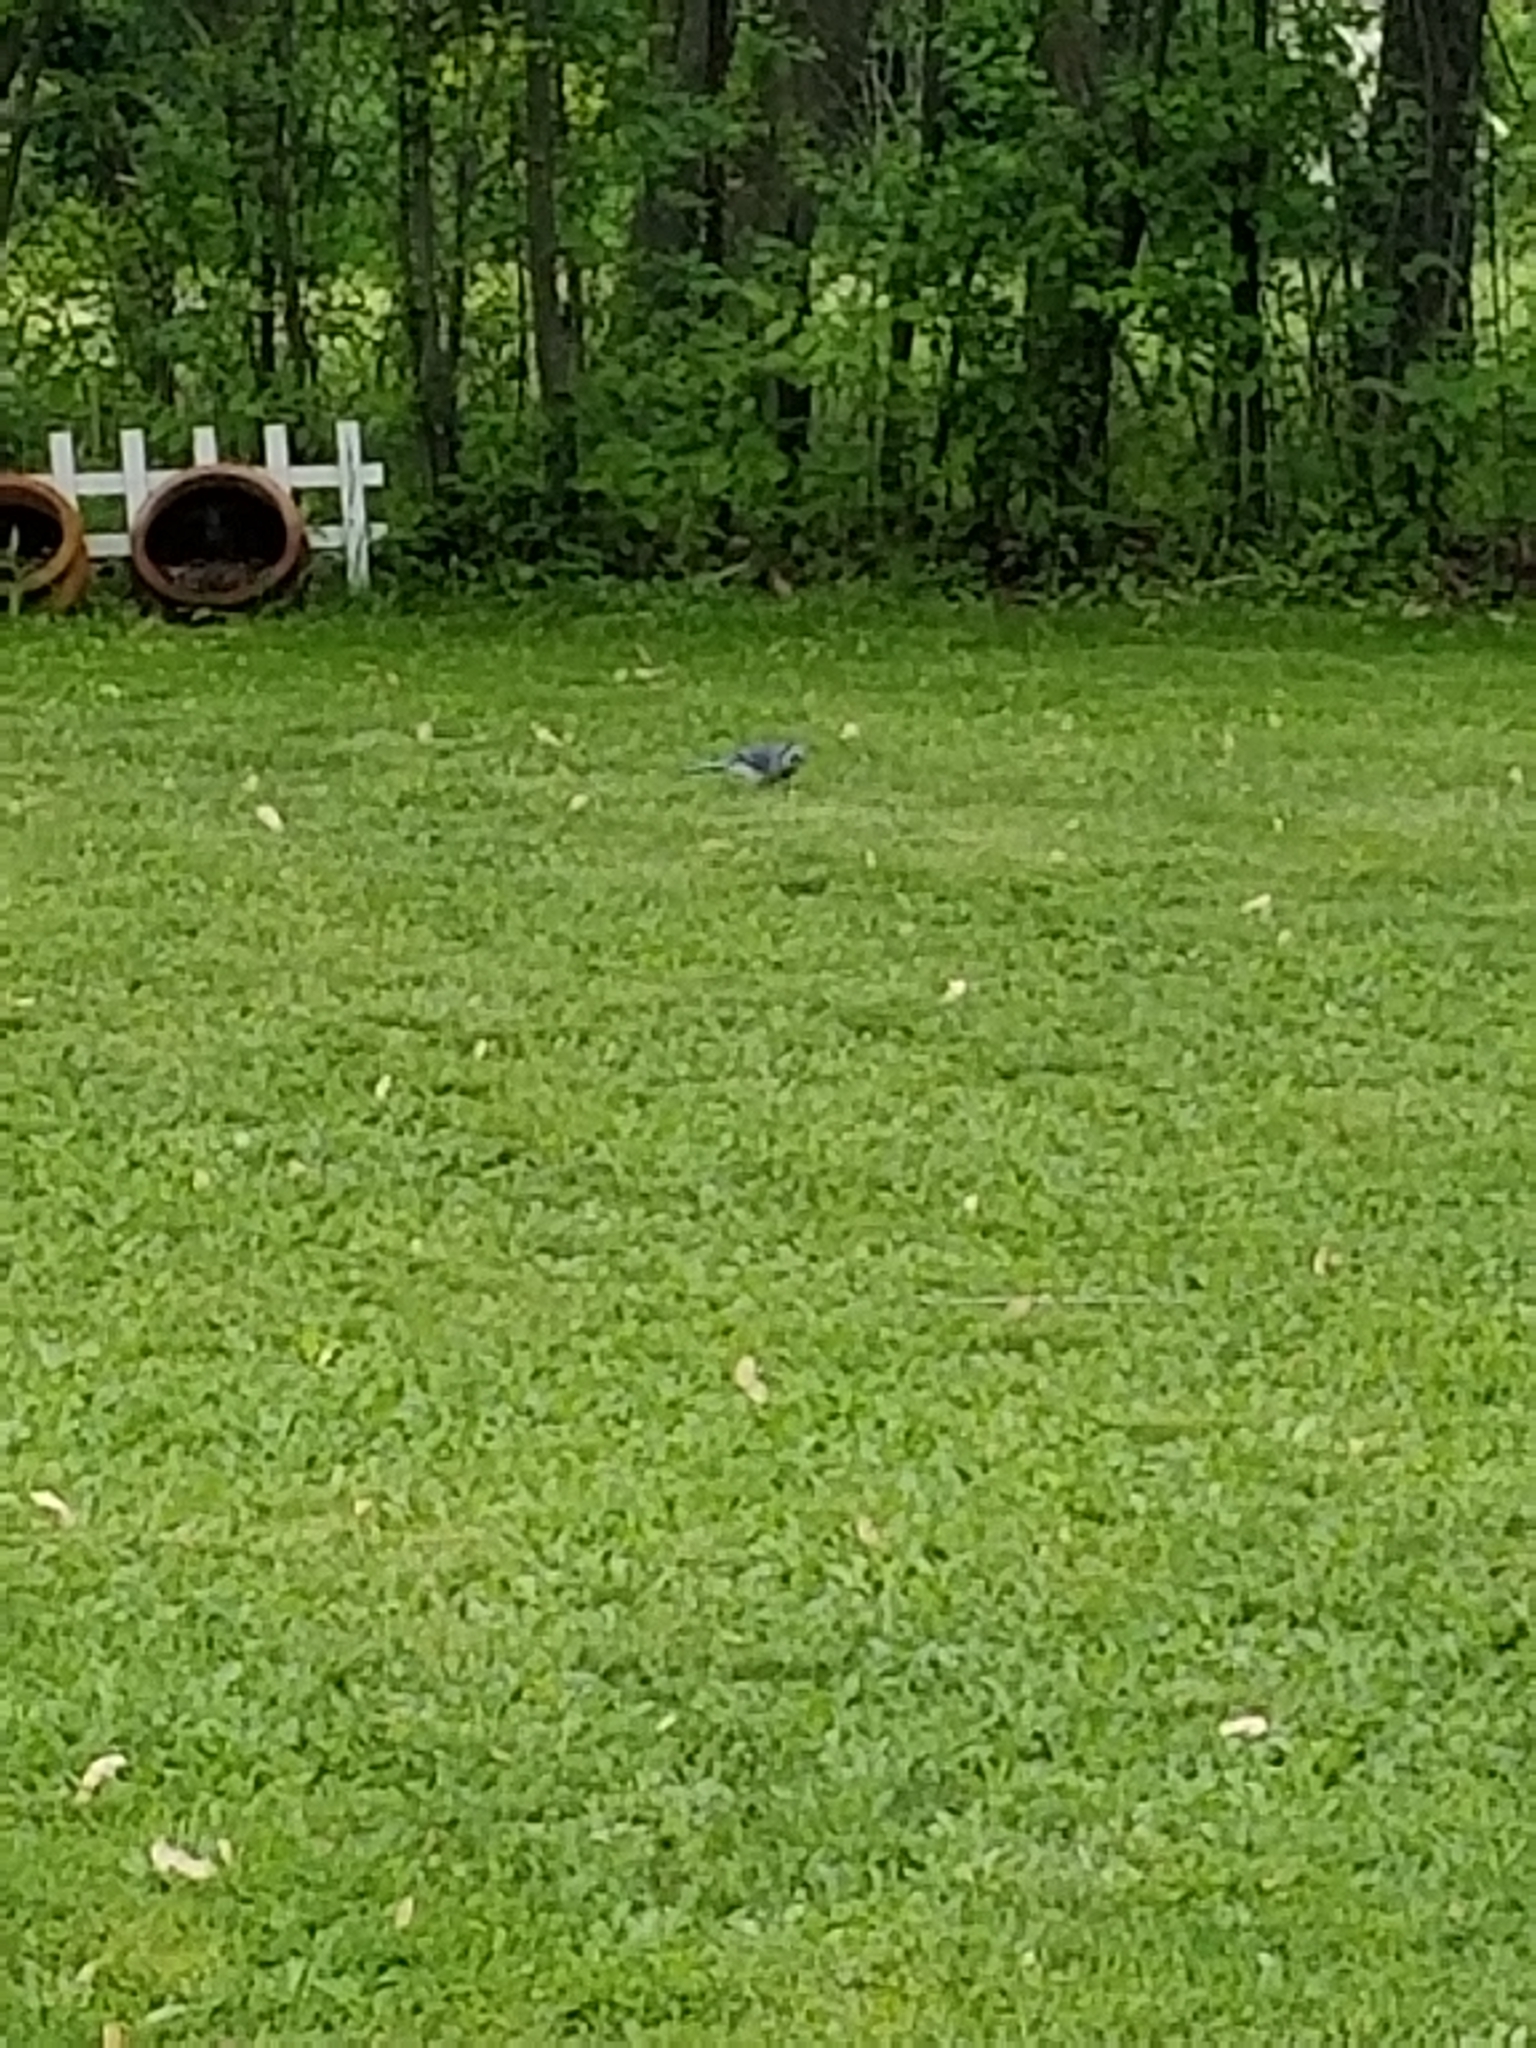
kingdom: Animalia
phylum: Chordata
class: Aves
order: Passeriformes
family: Corvidae
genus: Cyanocitta
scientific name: Cyanocitta cristata
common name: Blue jay
